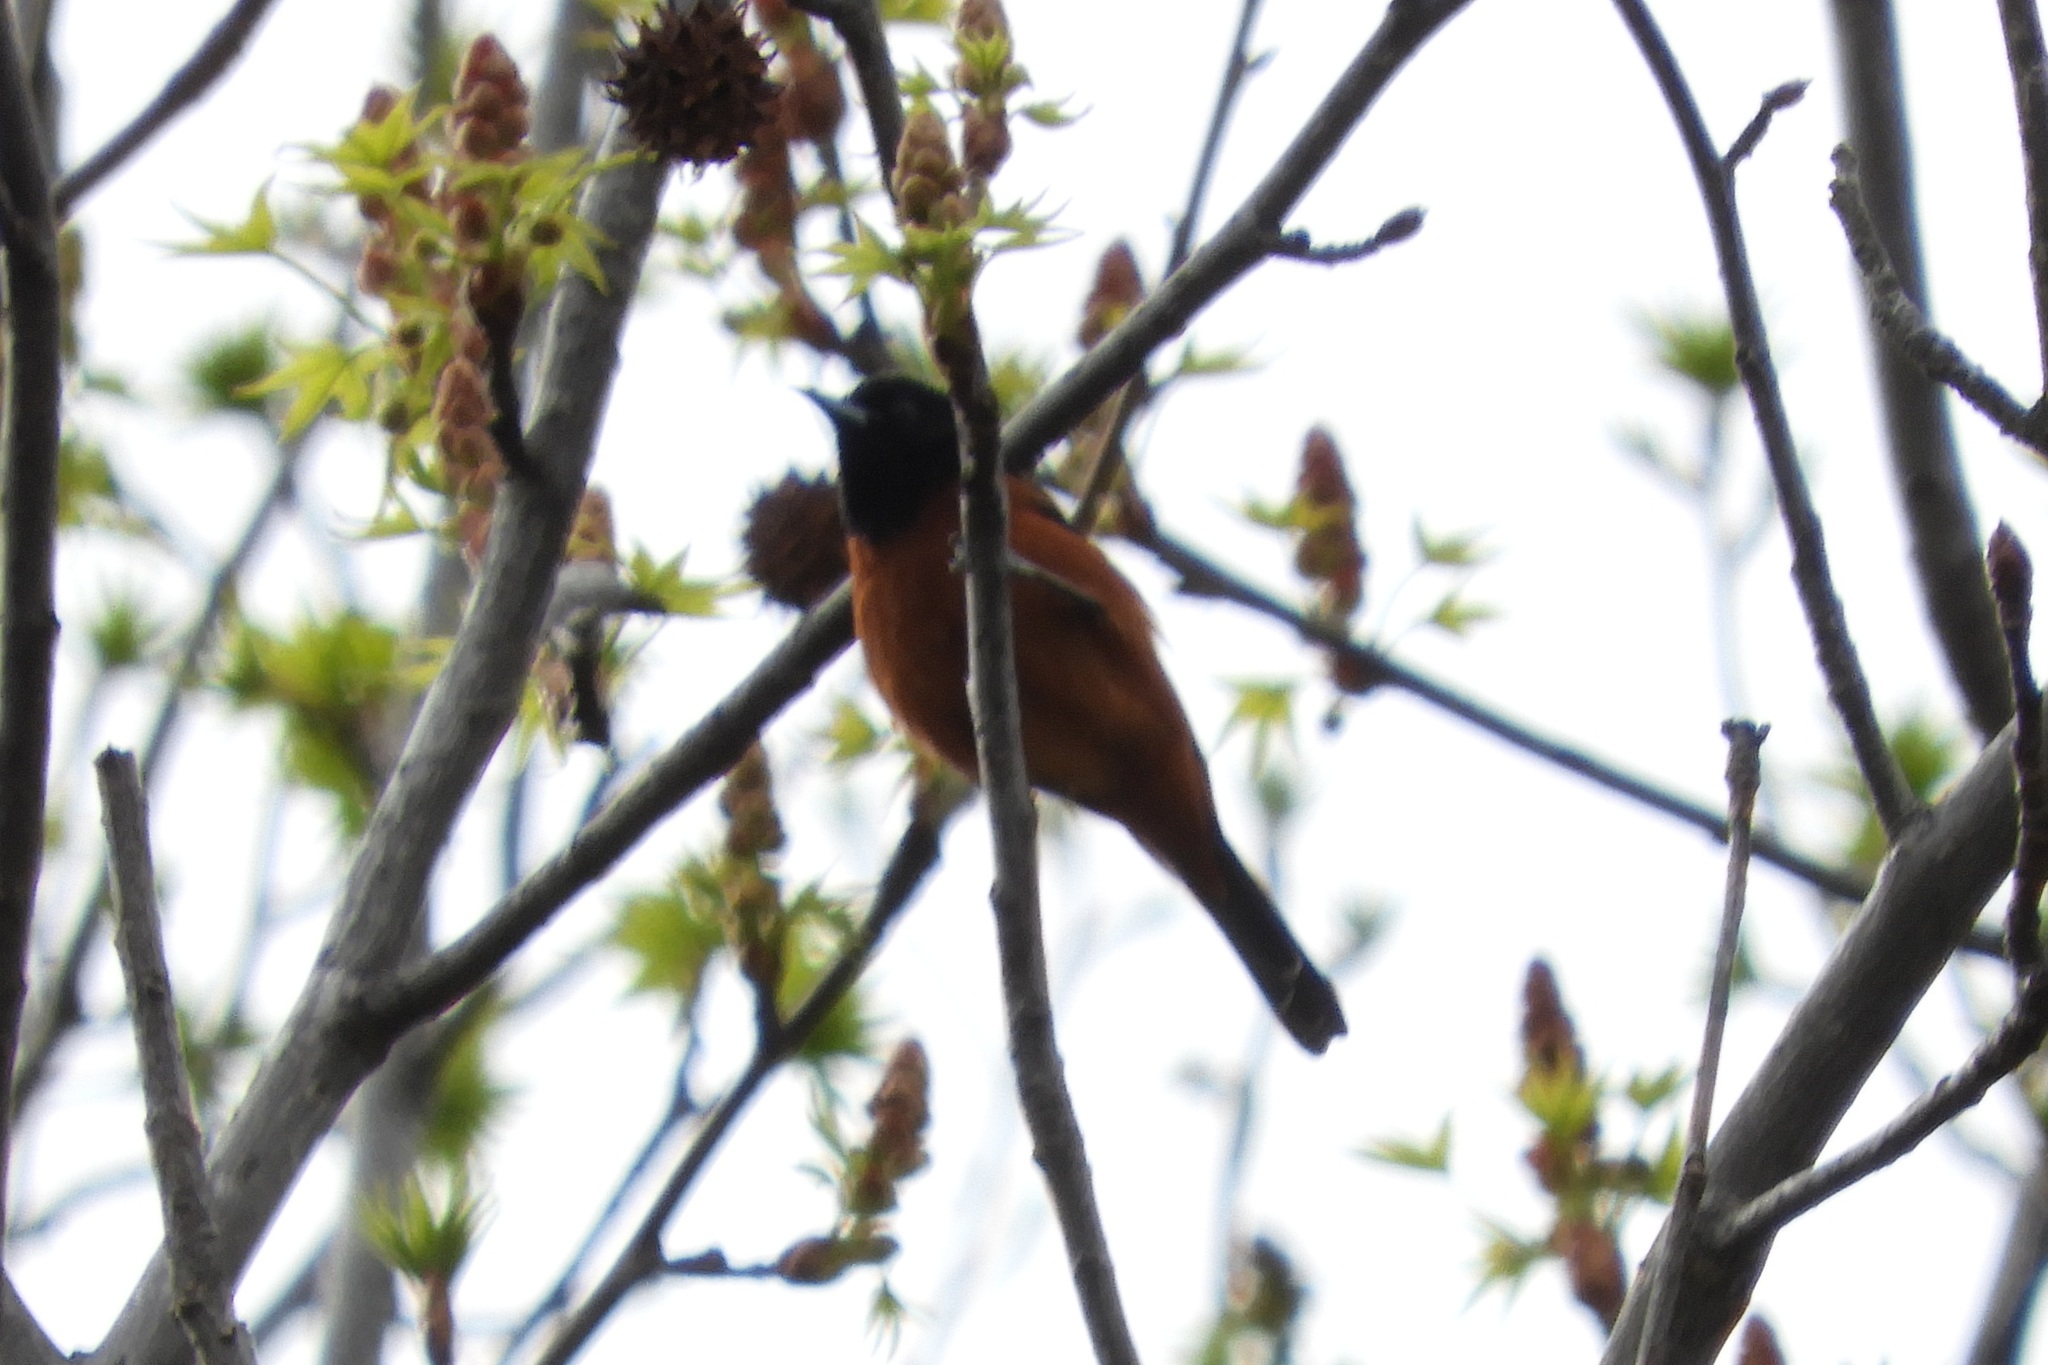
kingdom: Animalia
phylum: Chordata
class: Aves
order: Passeriformes
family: Icteridae
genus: Icterus
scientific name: Icterus spurius
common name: Orchard oriole
